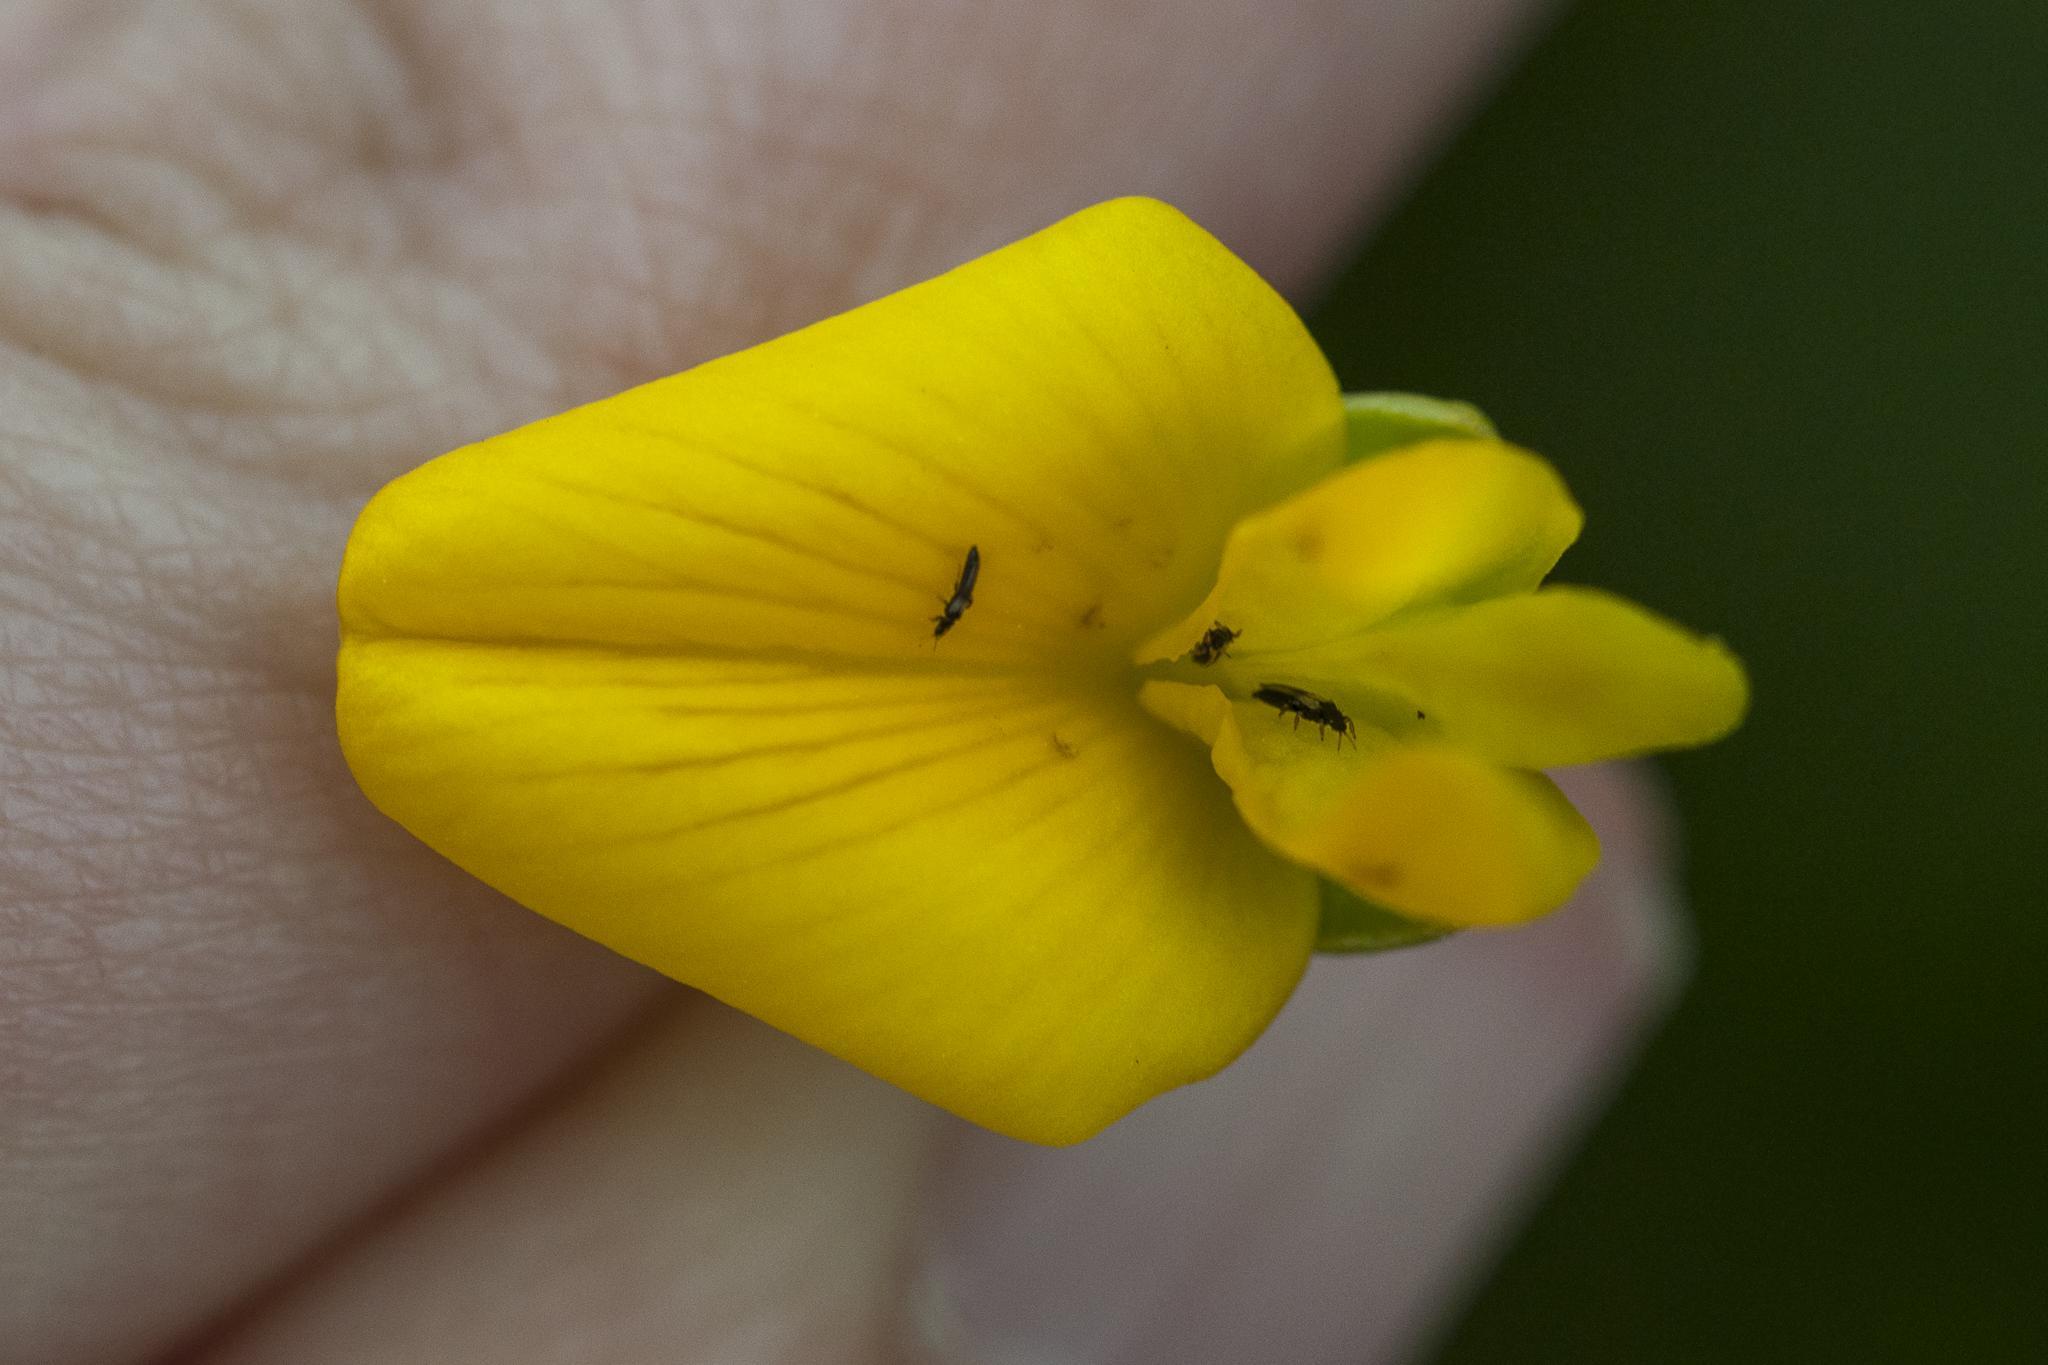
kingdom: Plantae
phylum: Tracheophyta
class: Magnoliopsida
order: Fabales
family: Fabaceae
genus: Aspalathus
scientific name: Aspalathus carnosa
